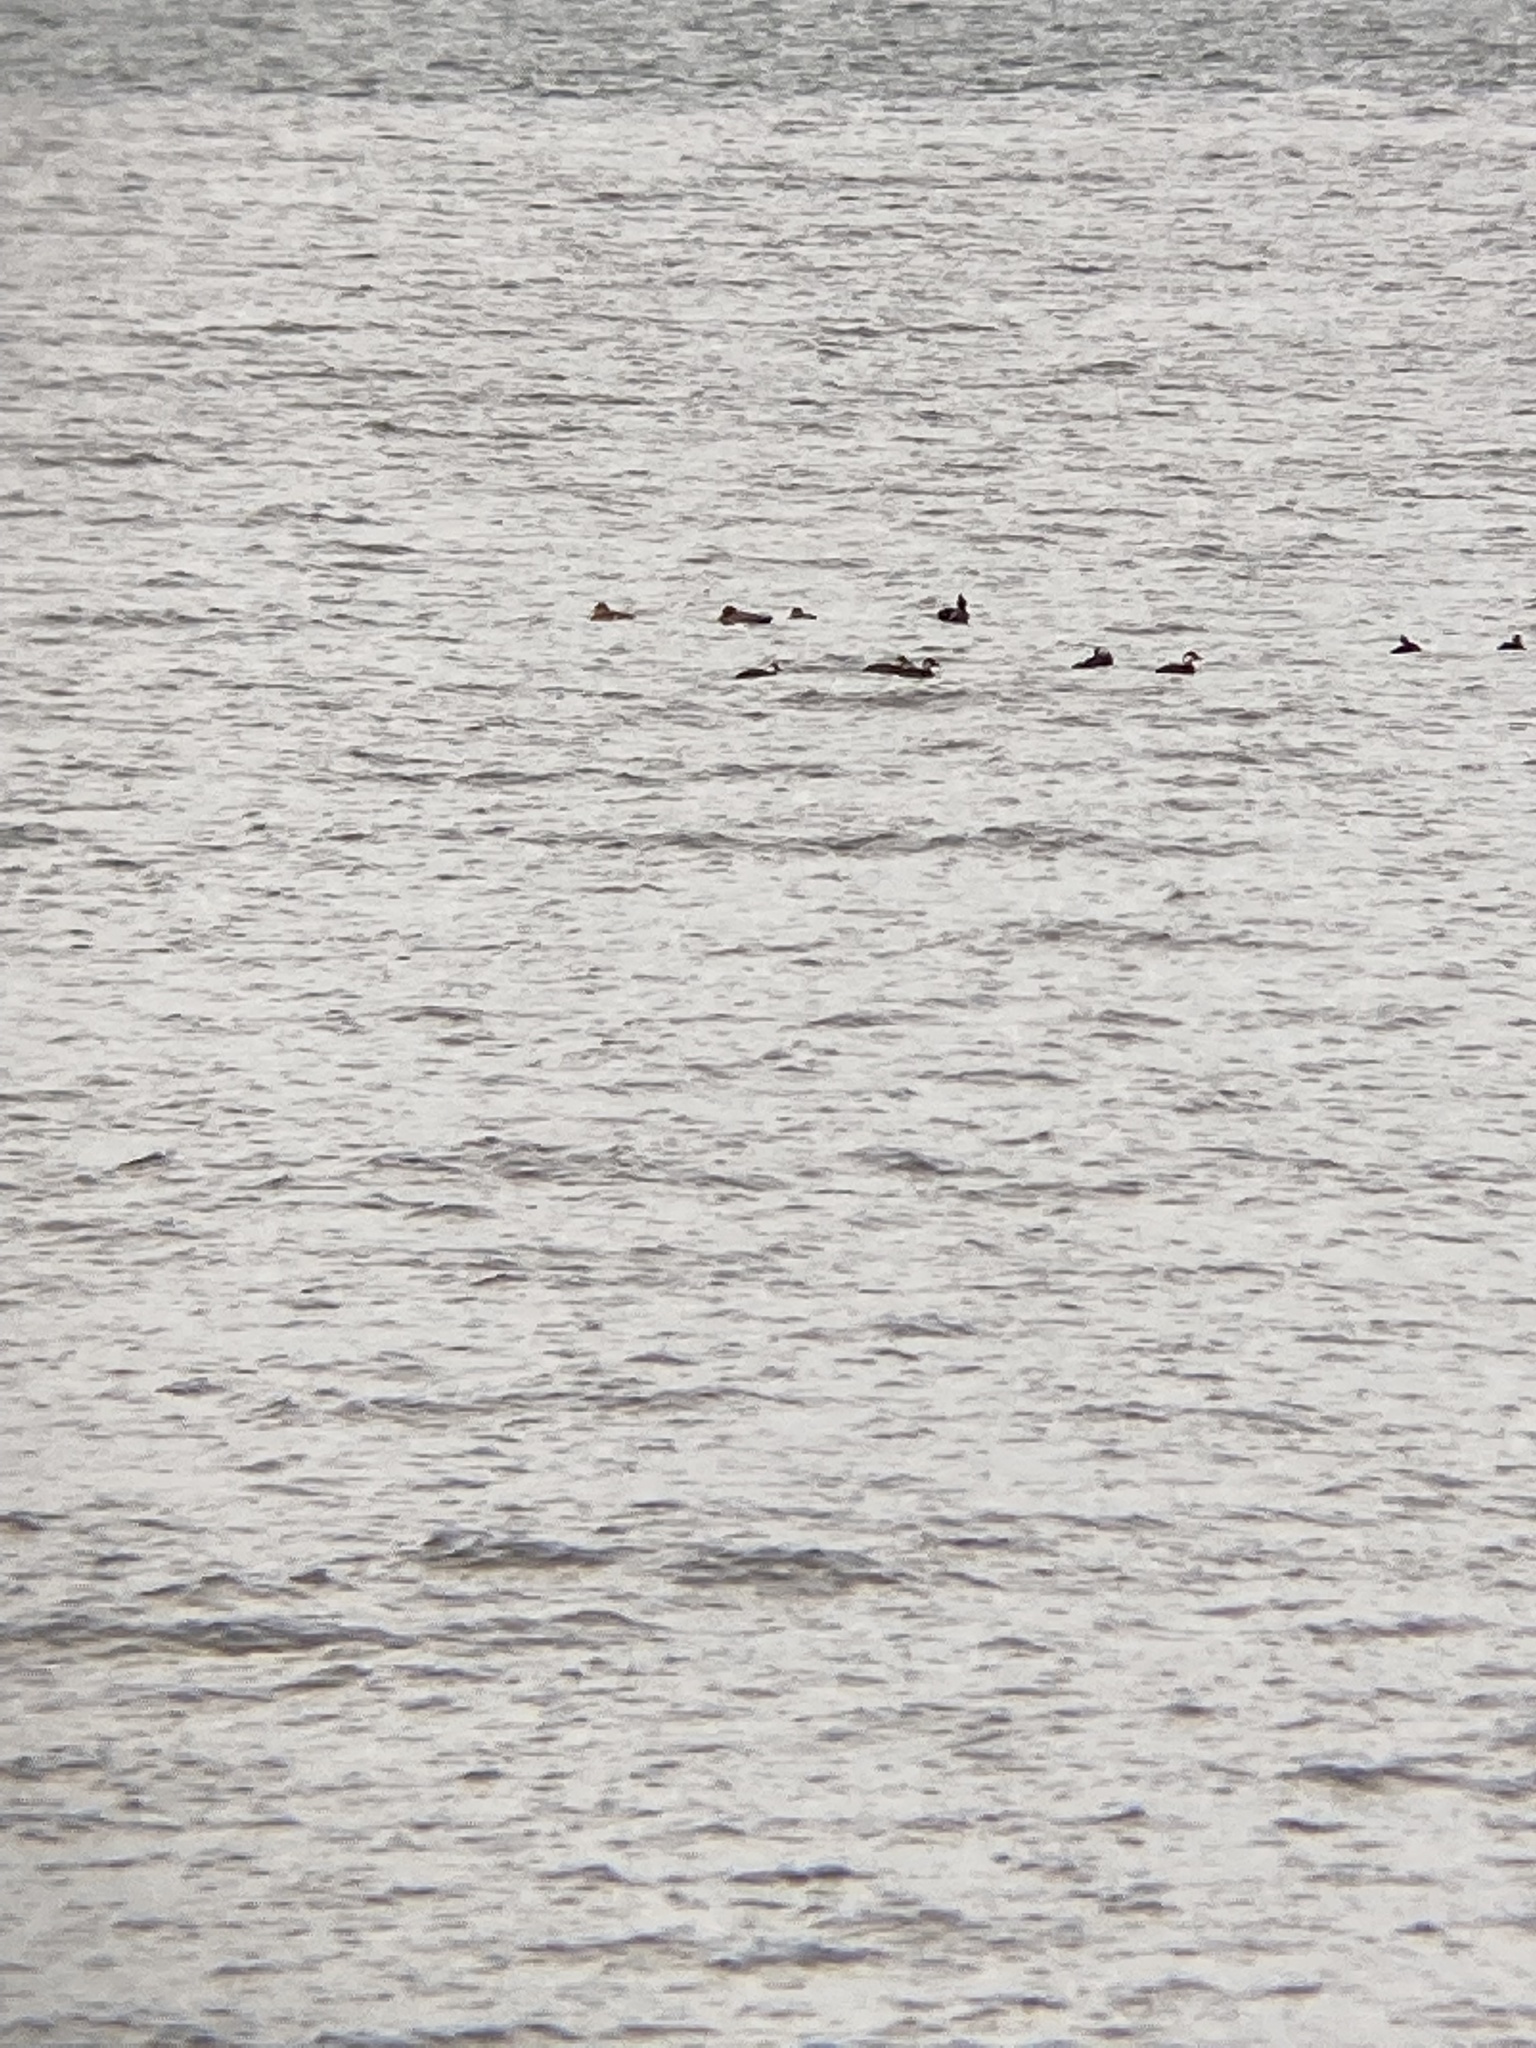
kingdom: Animalia
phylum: Chordata
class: Aves
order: Anseriformes
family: Anatidae
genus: Melanitta
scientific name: Melanitta nigra
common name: Common scoter
